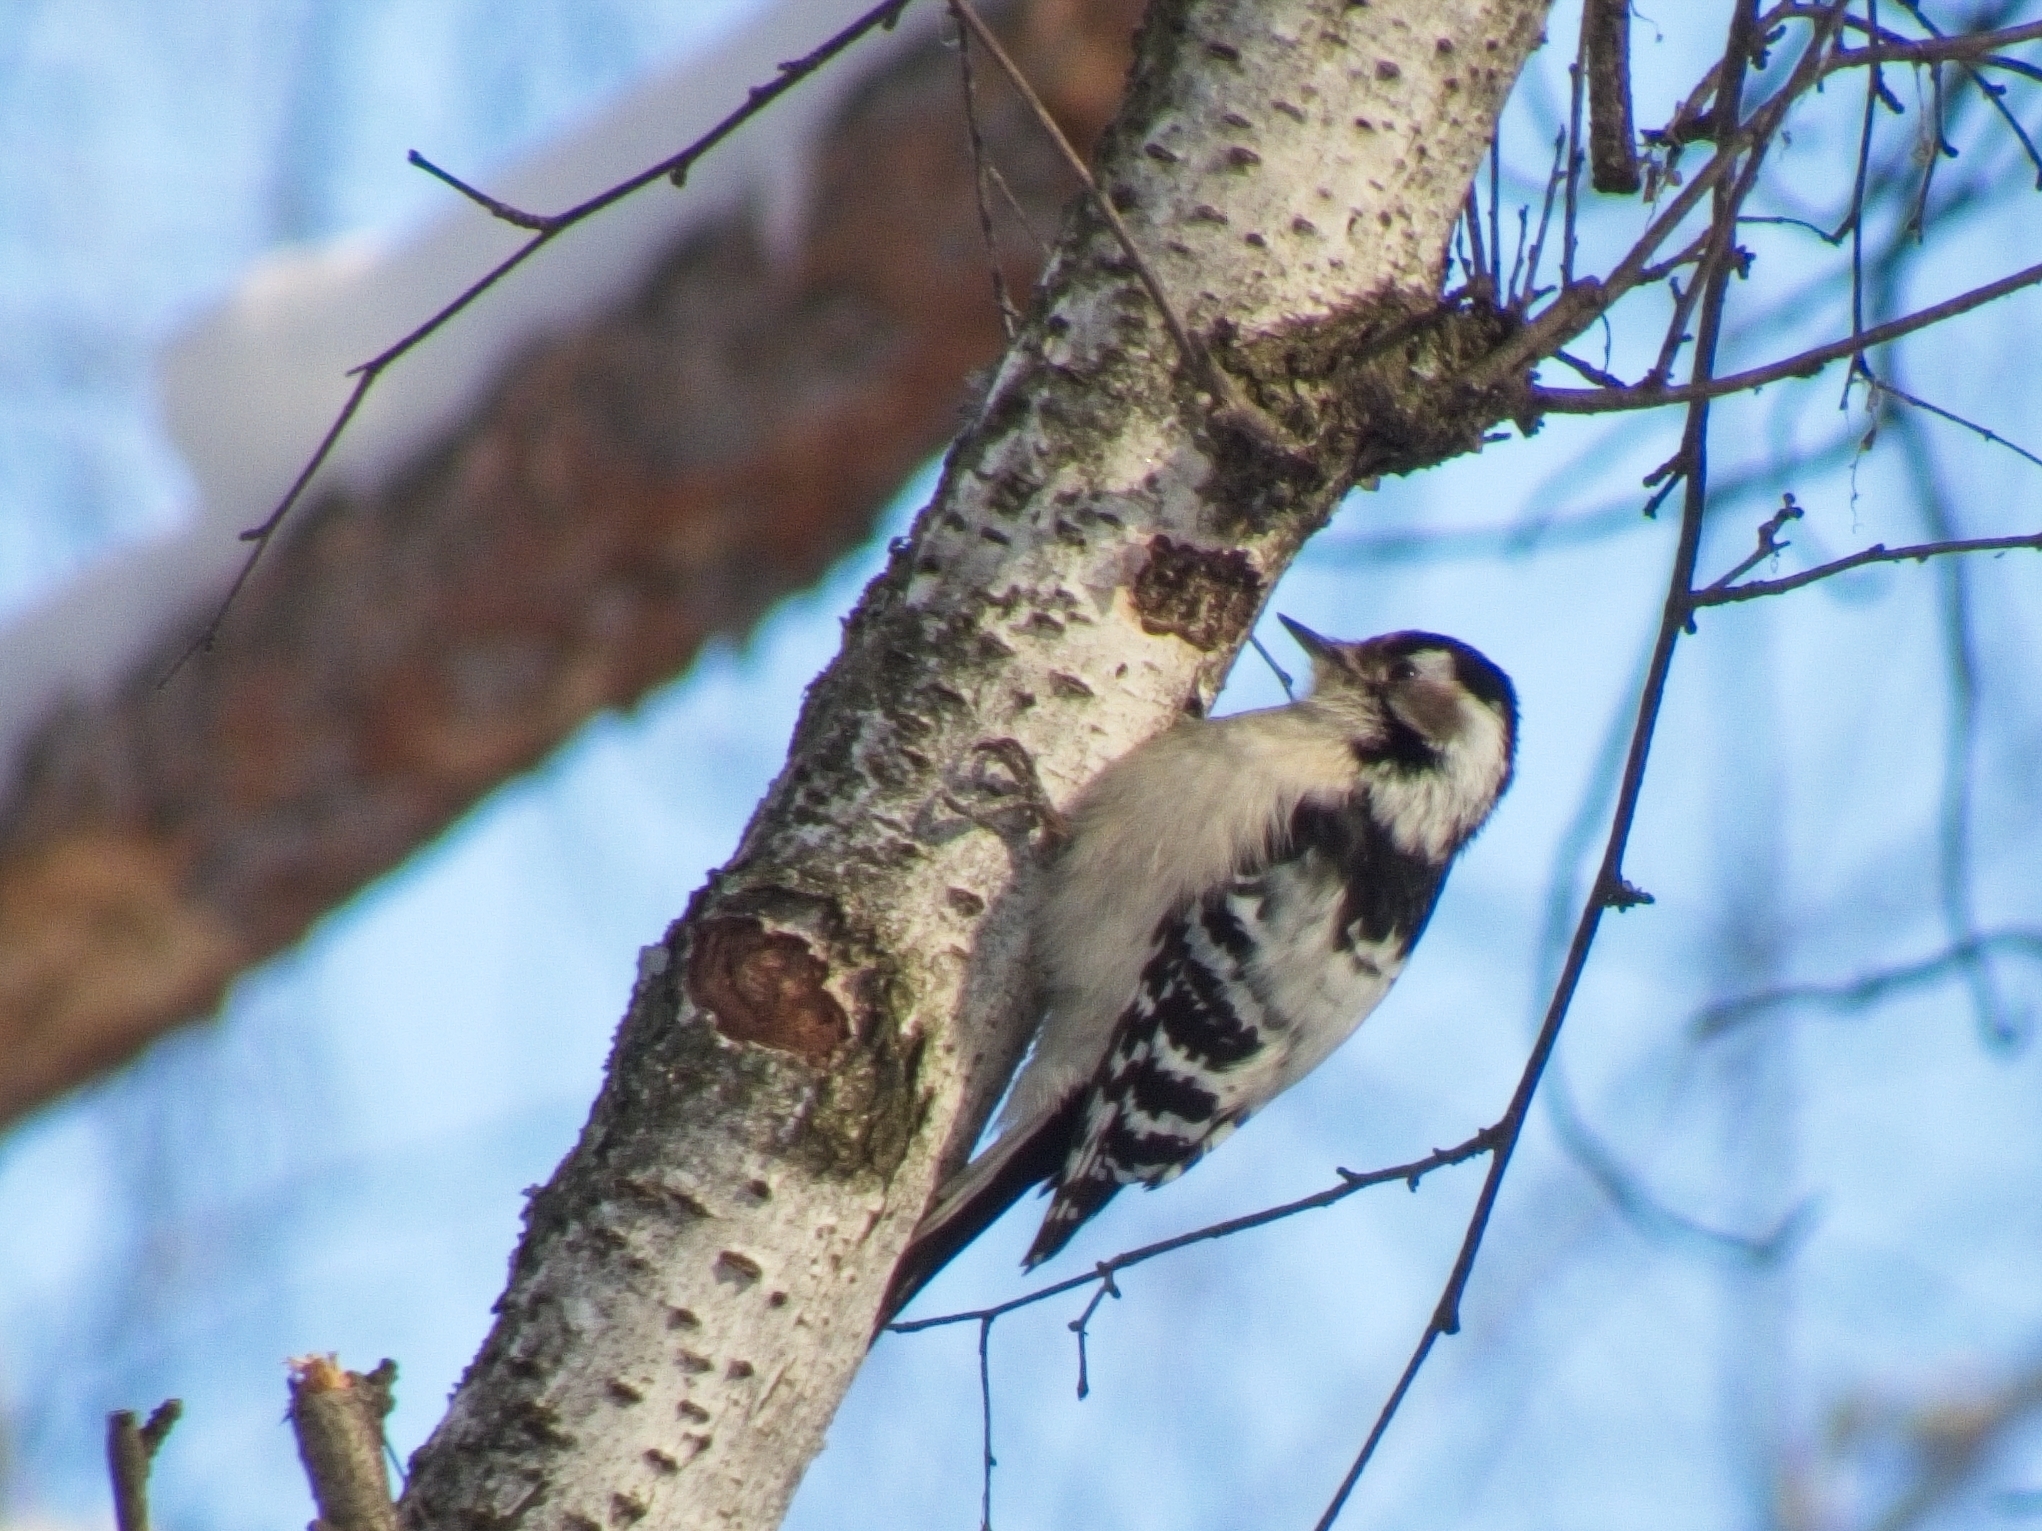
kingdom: Animalia
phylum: Chordata
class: Aves
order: Piciformes
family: Picidae
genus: Dryobates
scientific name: Dryobates minor
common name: Lesser spotted woodpecker
